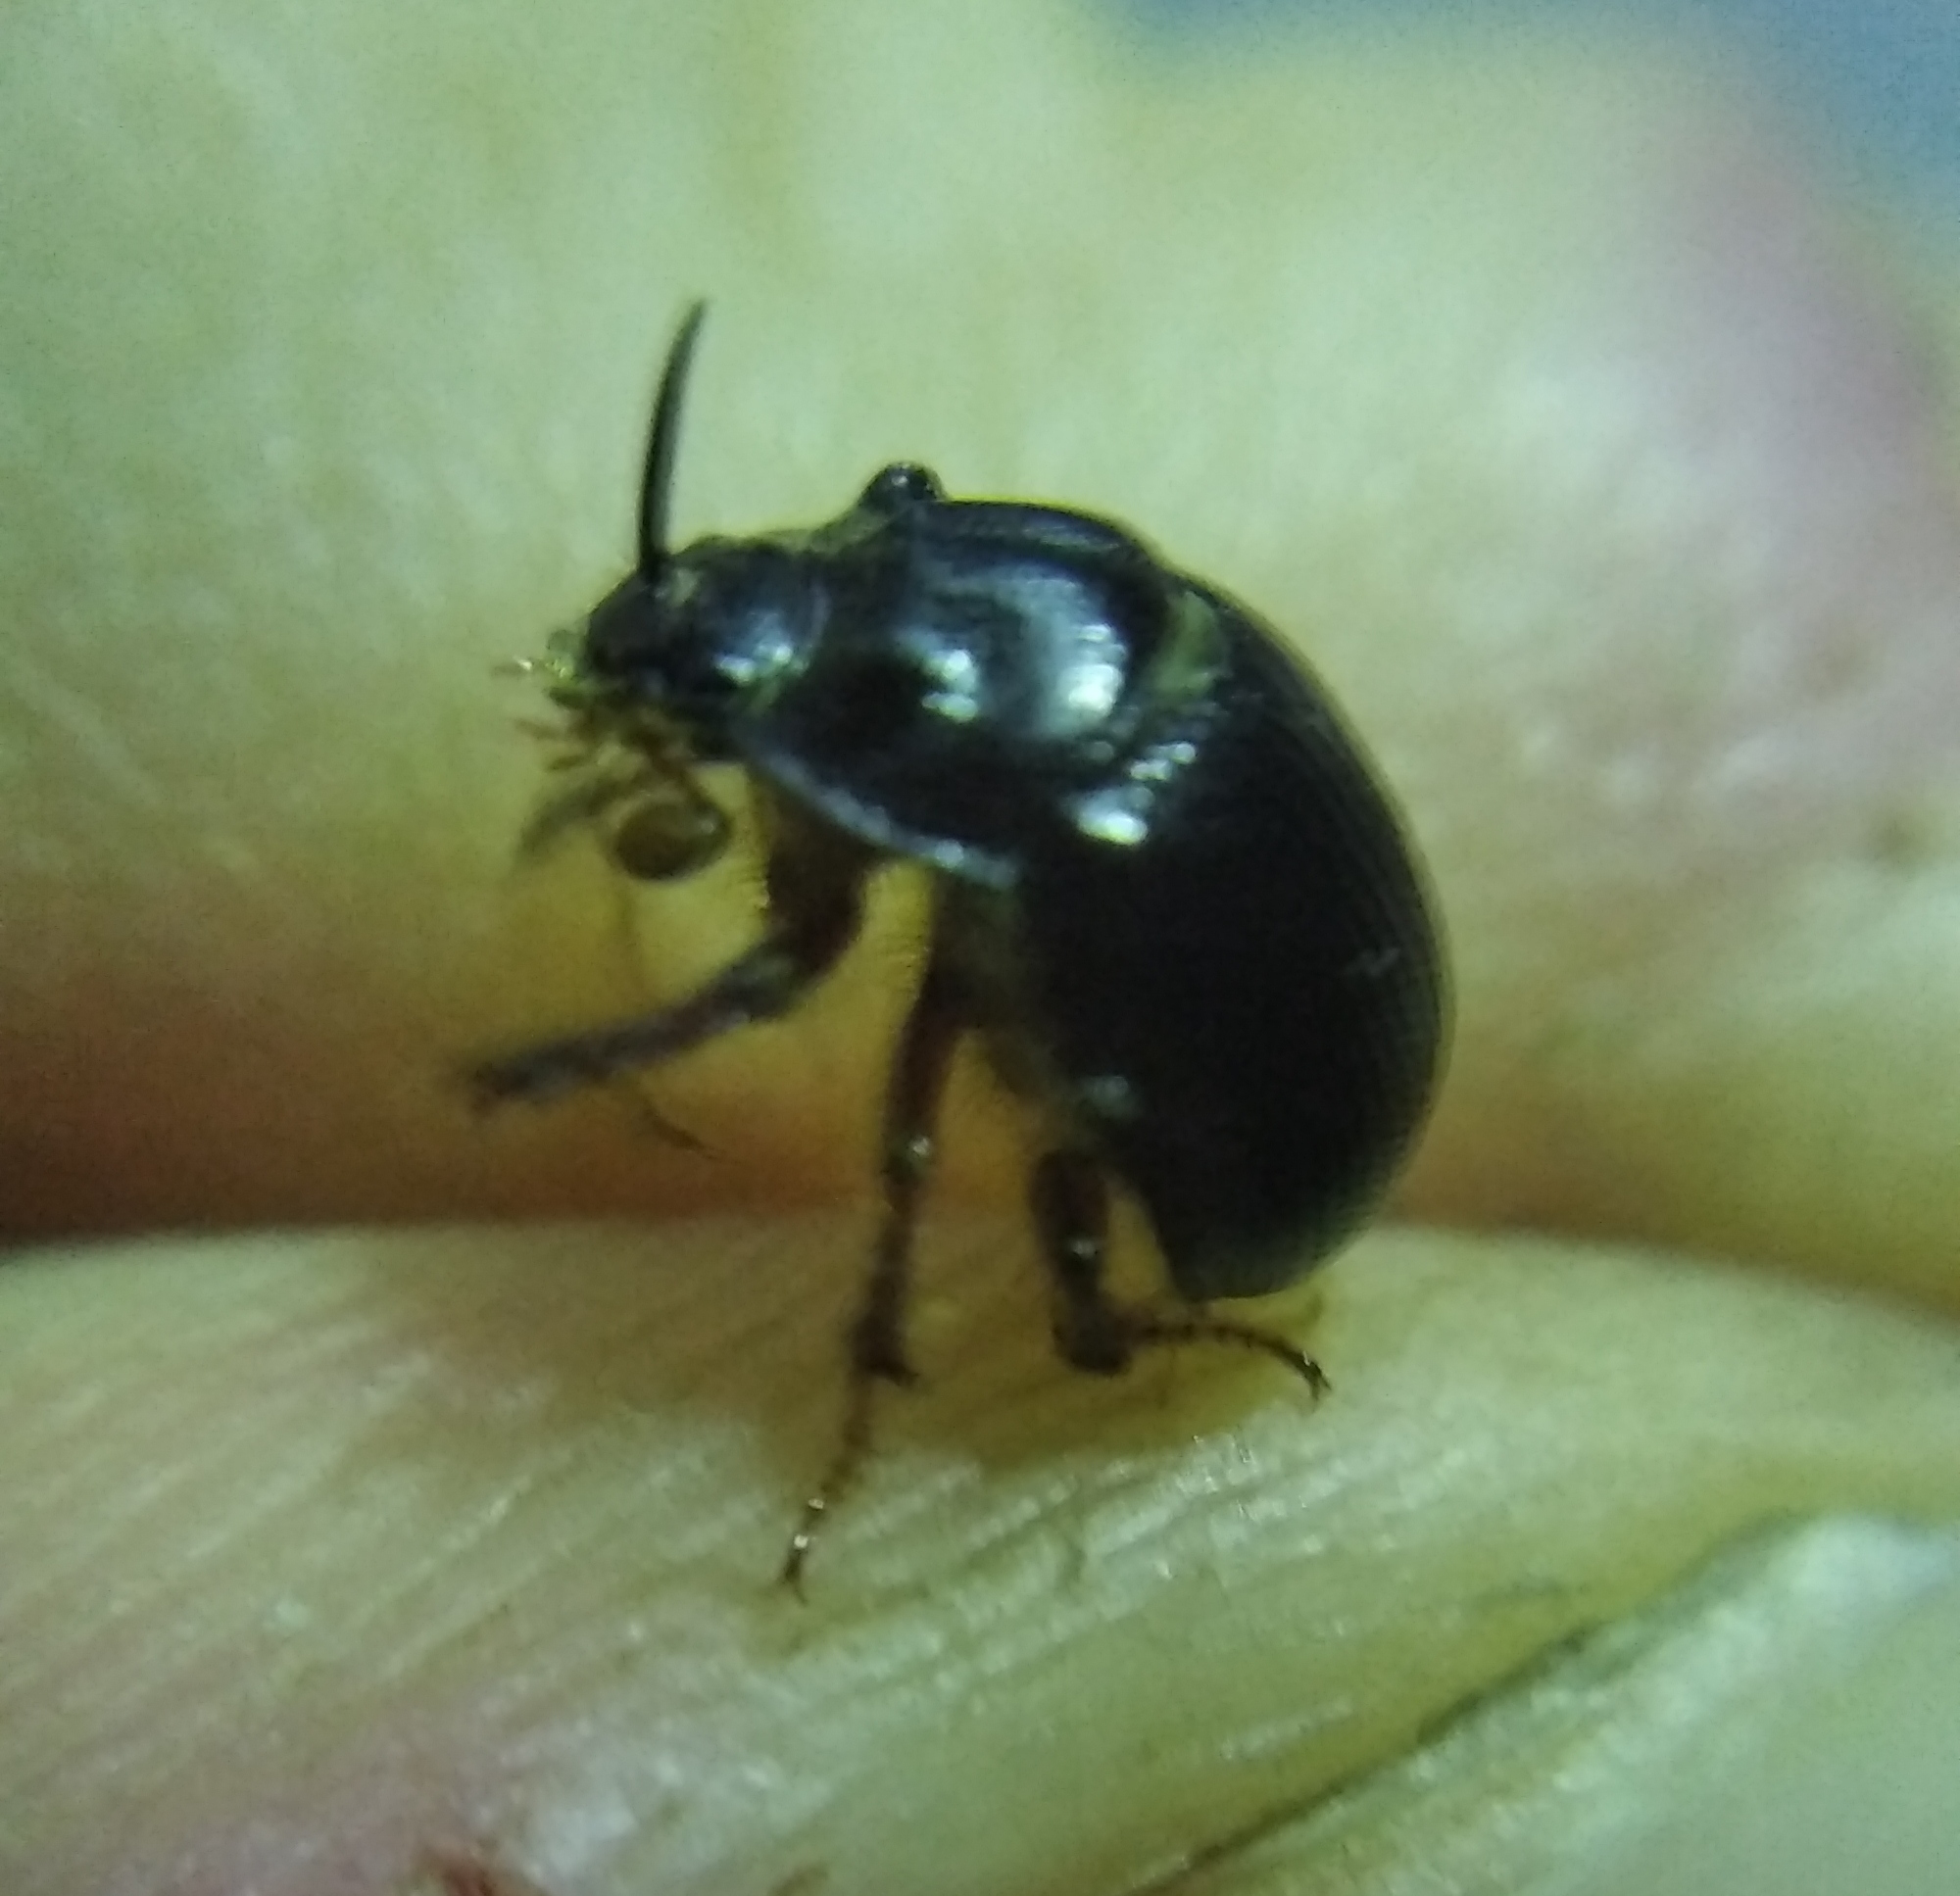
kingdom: Animalia
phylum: Arthropoda
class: Insecta
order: Coleoptera
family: Geotrupidae
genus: Odonteus
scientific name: Odonteus armiger
